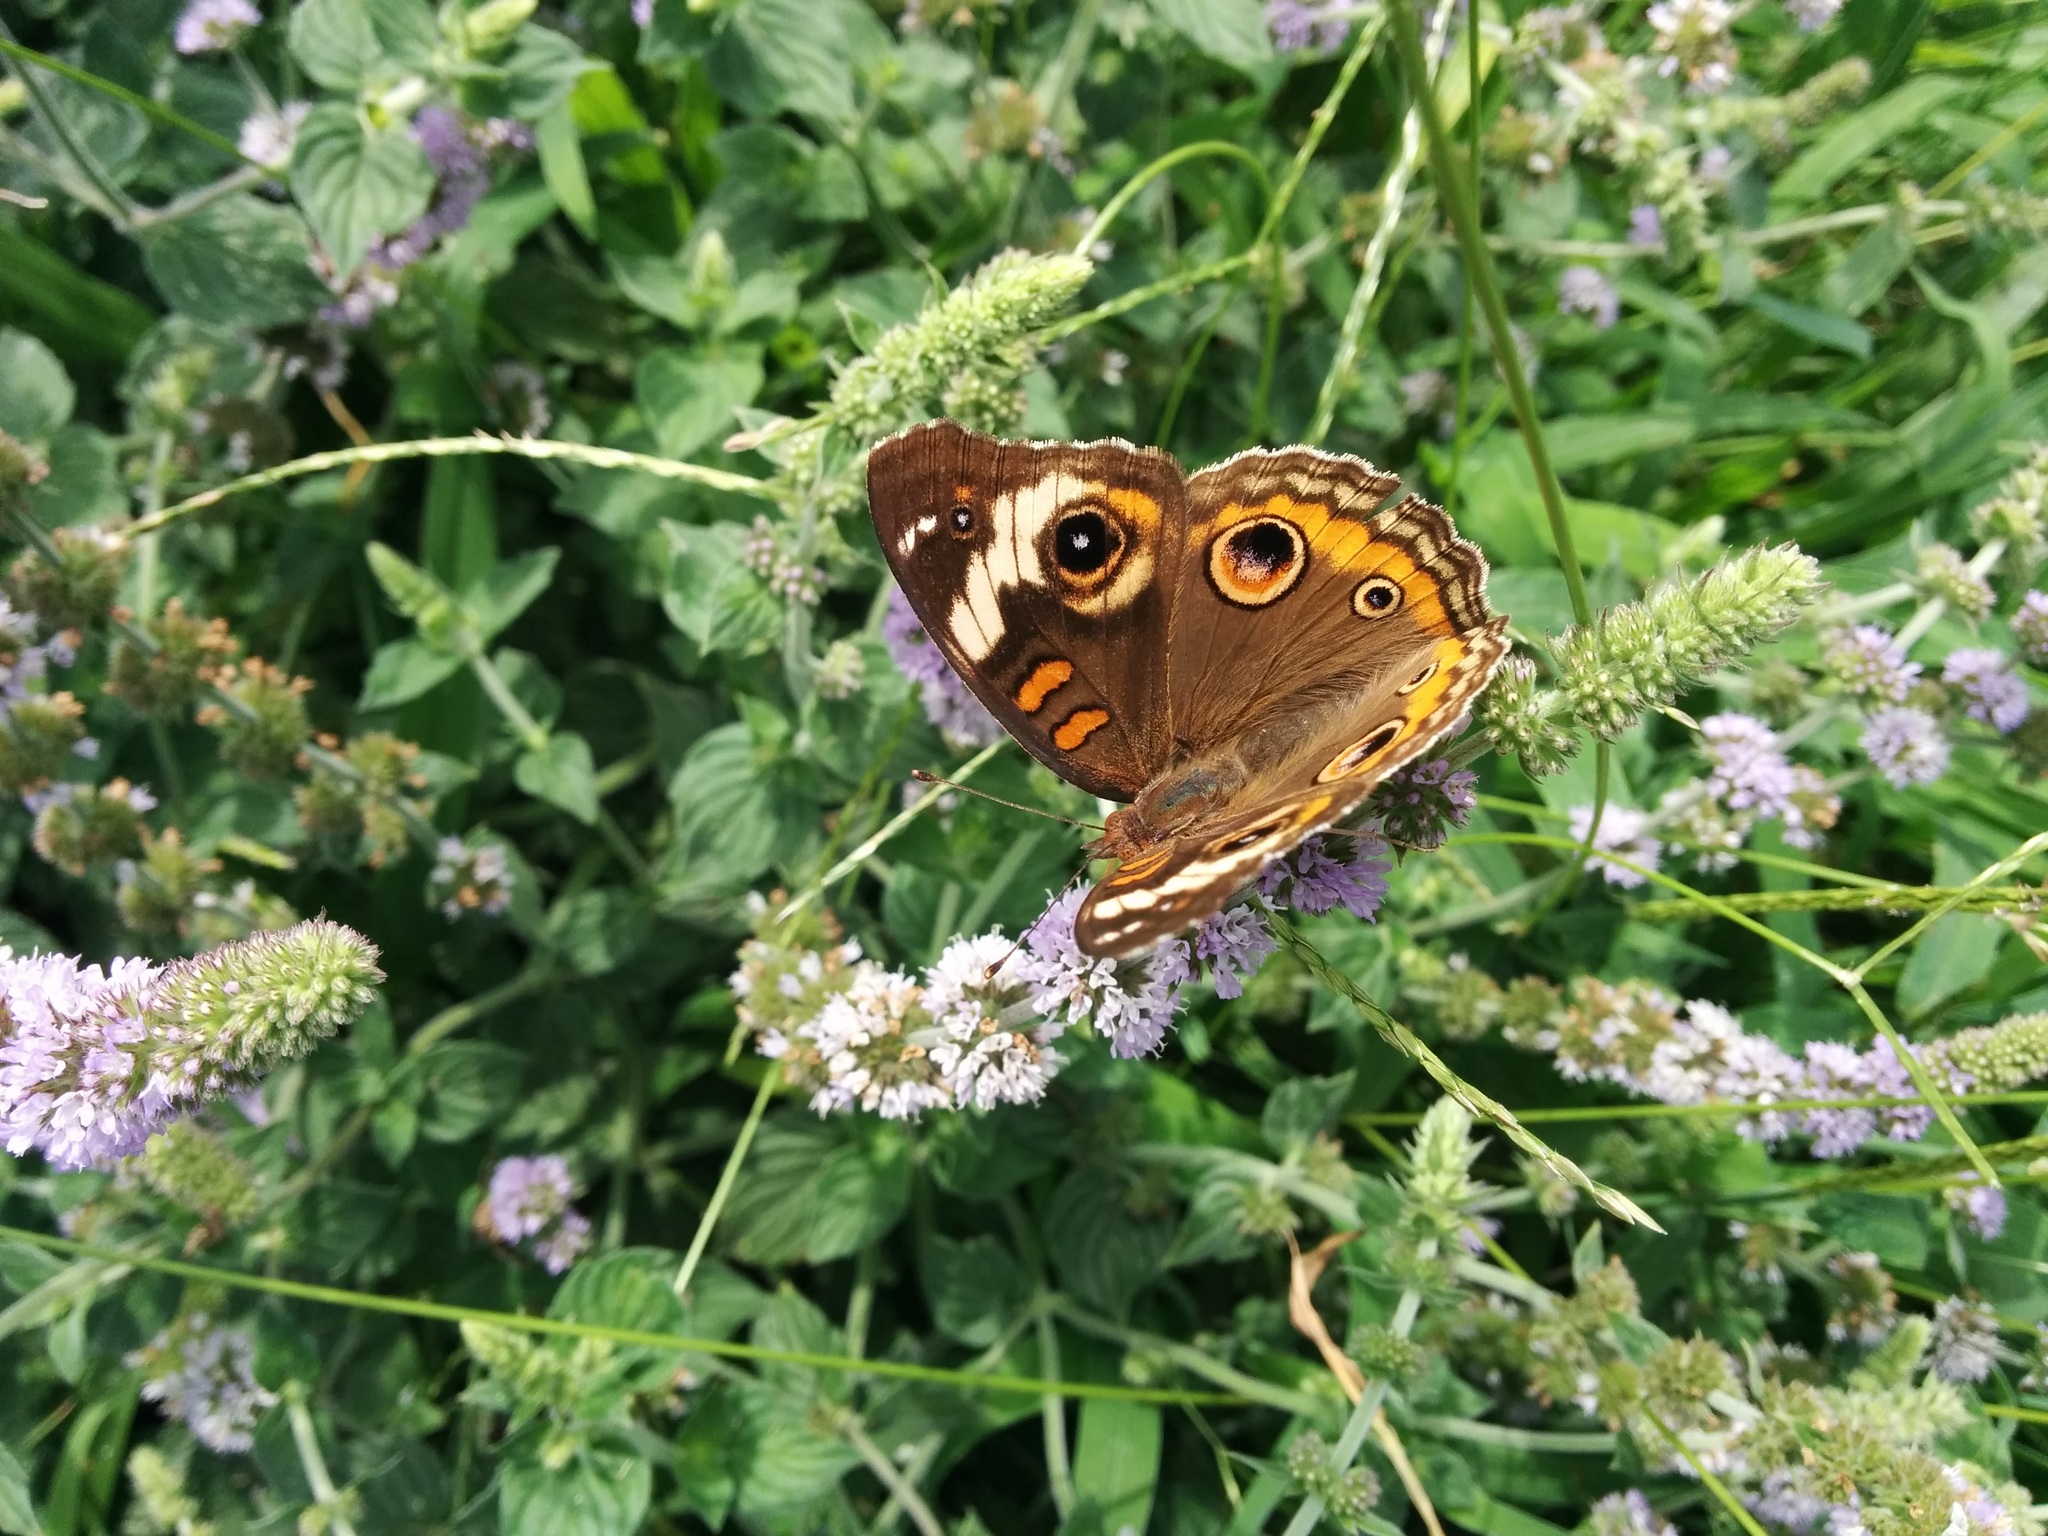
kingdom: Animalia
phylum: Arthropoda
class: Insecta
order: Lepidoptera
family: Nymphalidae
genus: Junonia
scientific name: Junonia coenia
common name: Common buckeye
